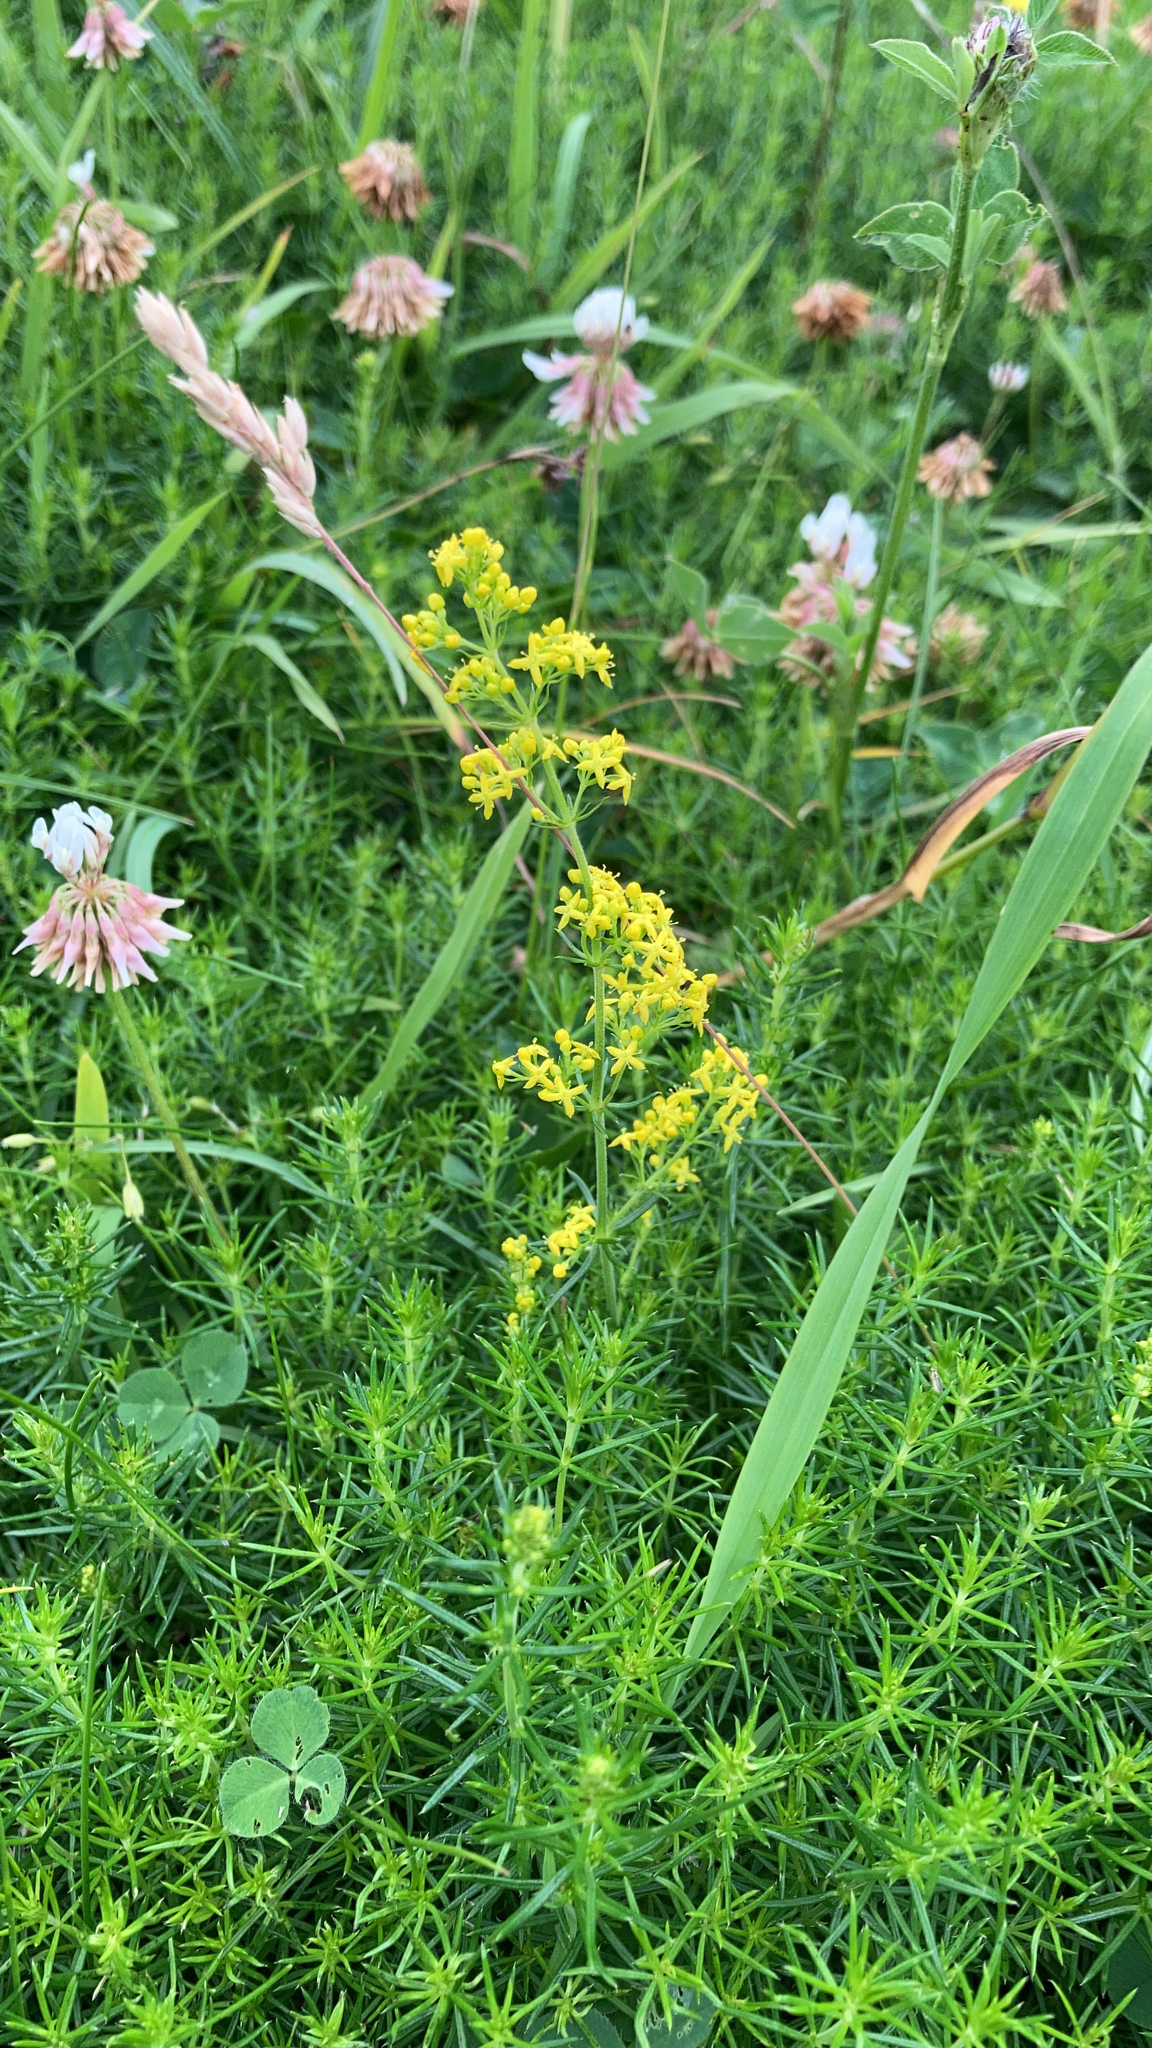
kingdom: Plantae
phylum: Tracheophyta
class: Magnoliopsida
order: Gentianales
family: Rubiaceae
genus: Galium
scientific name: Galium verum
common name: Lady's bedstraw
